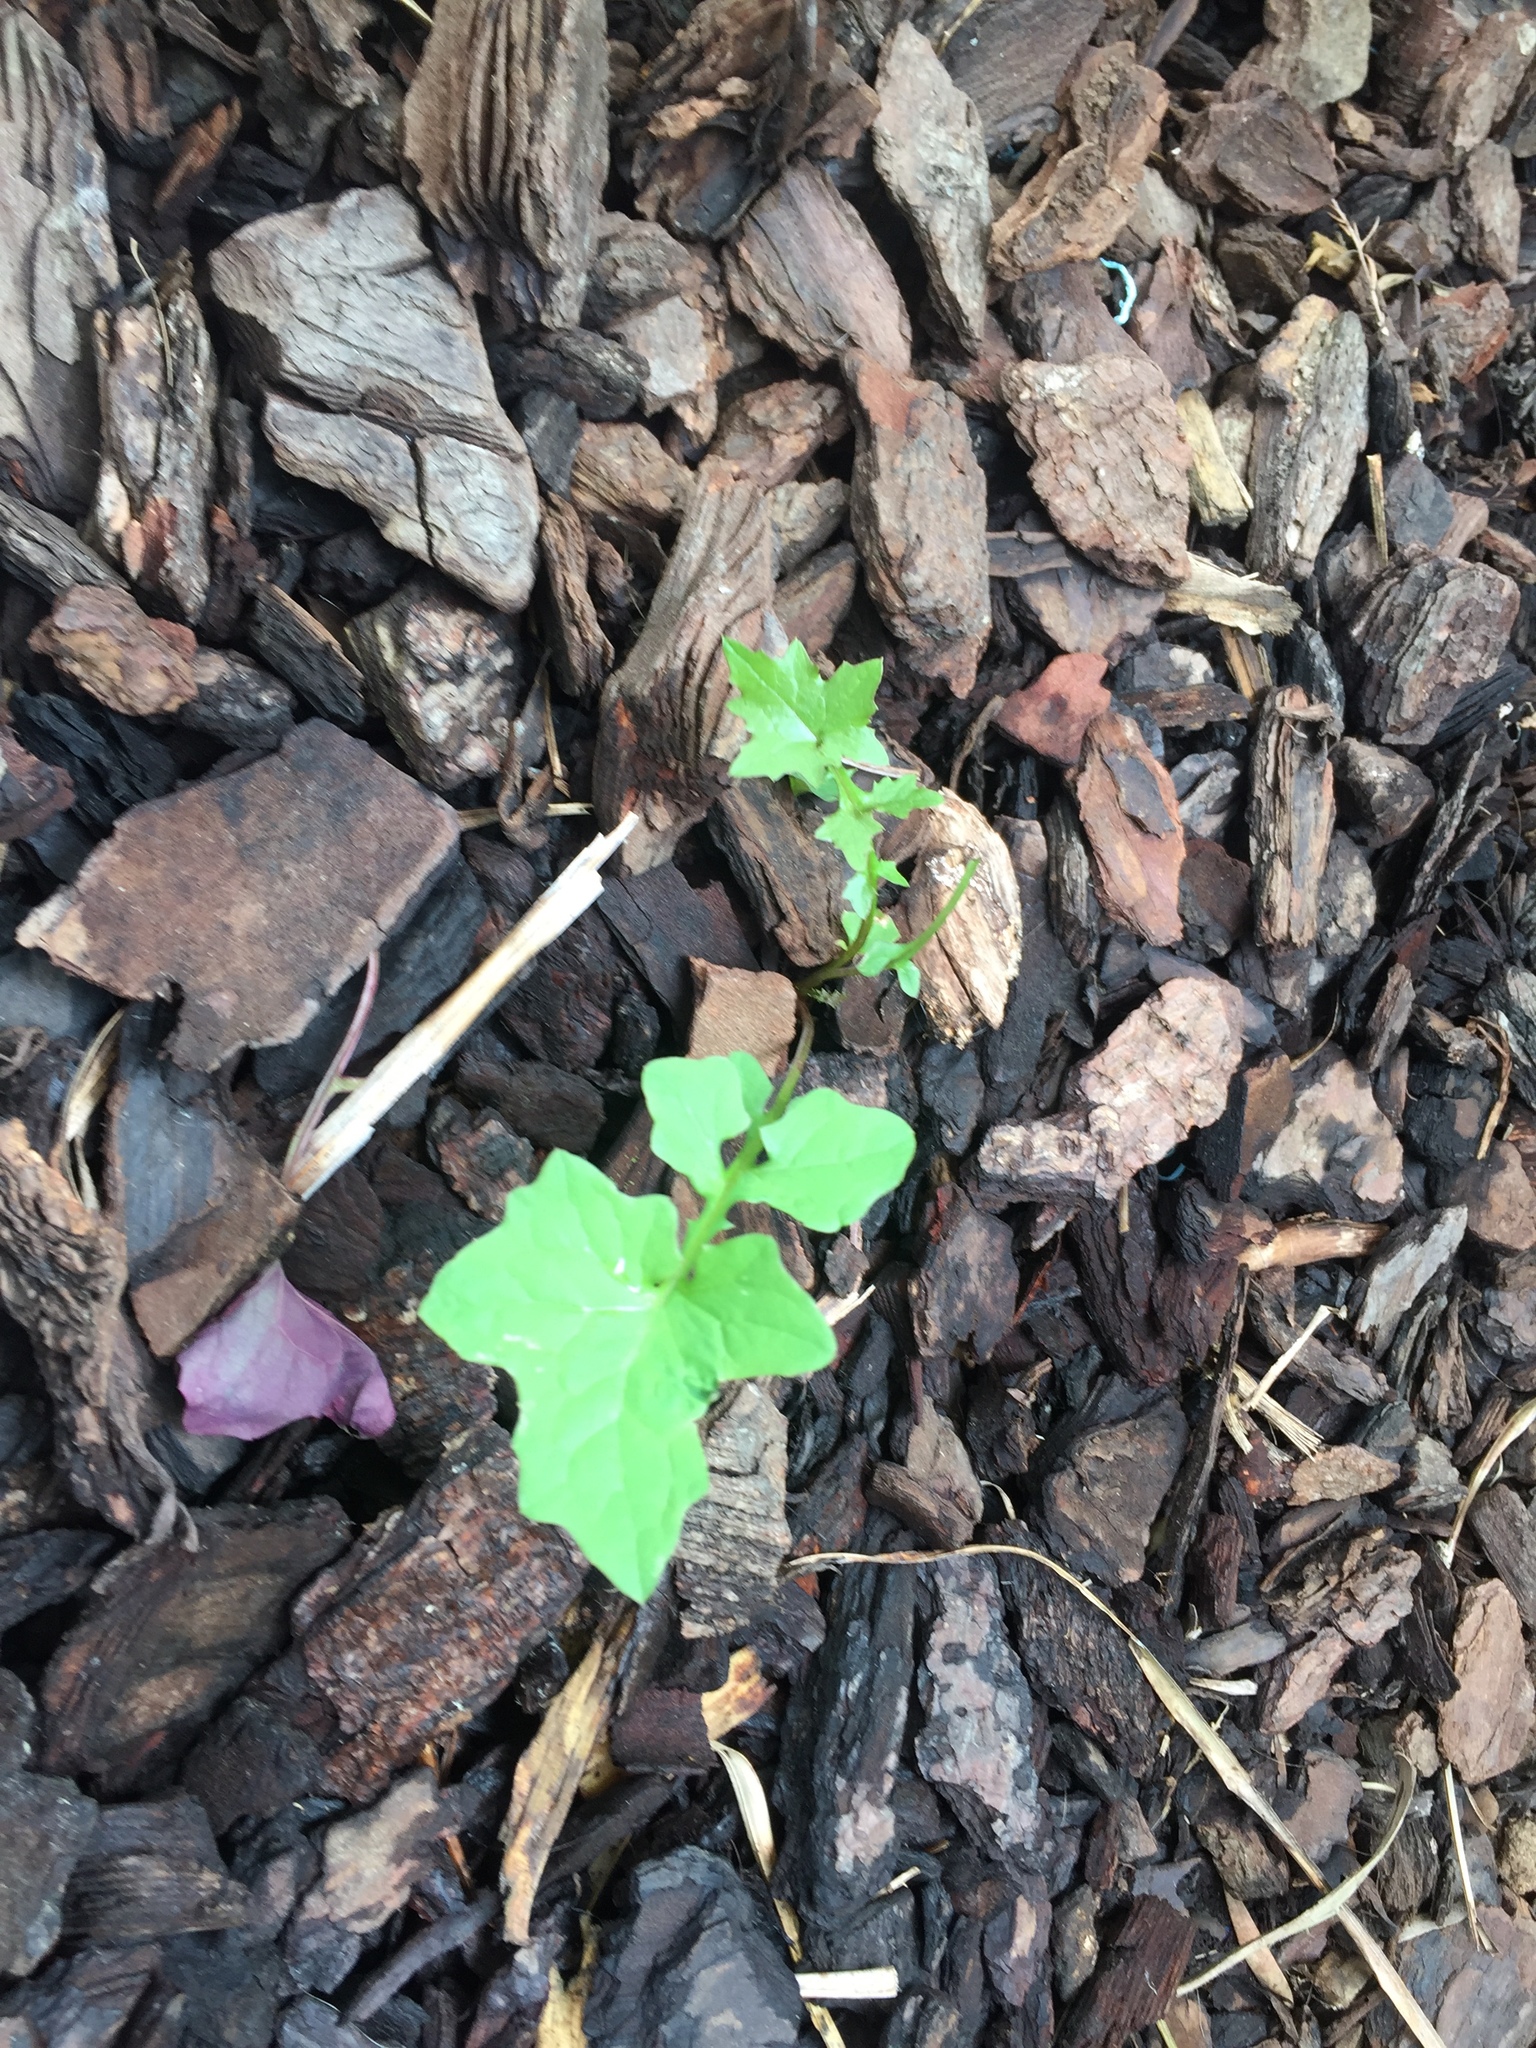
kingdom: Plantae
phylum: Tracheophyta
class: Magnoliopsida
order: Asterales
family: Asteraceae
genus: Mycelis
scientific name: Mycelis muralis
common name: Wall lettuce
